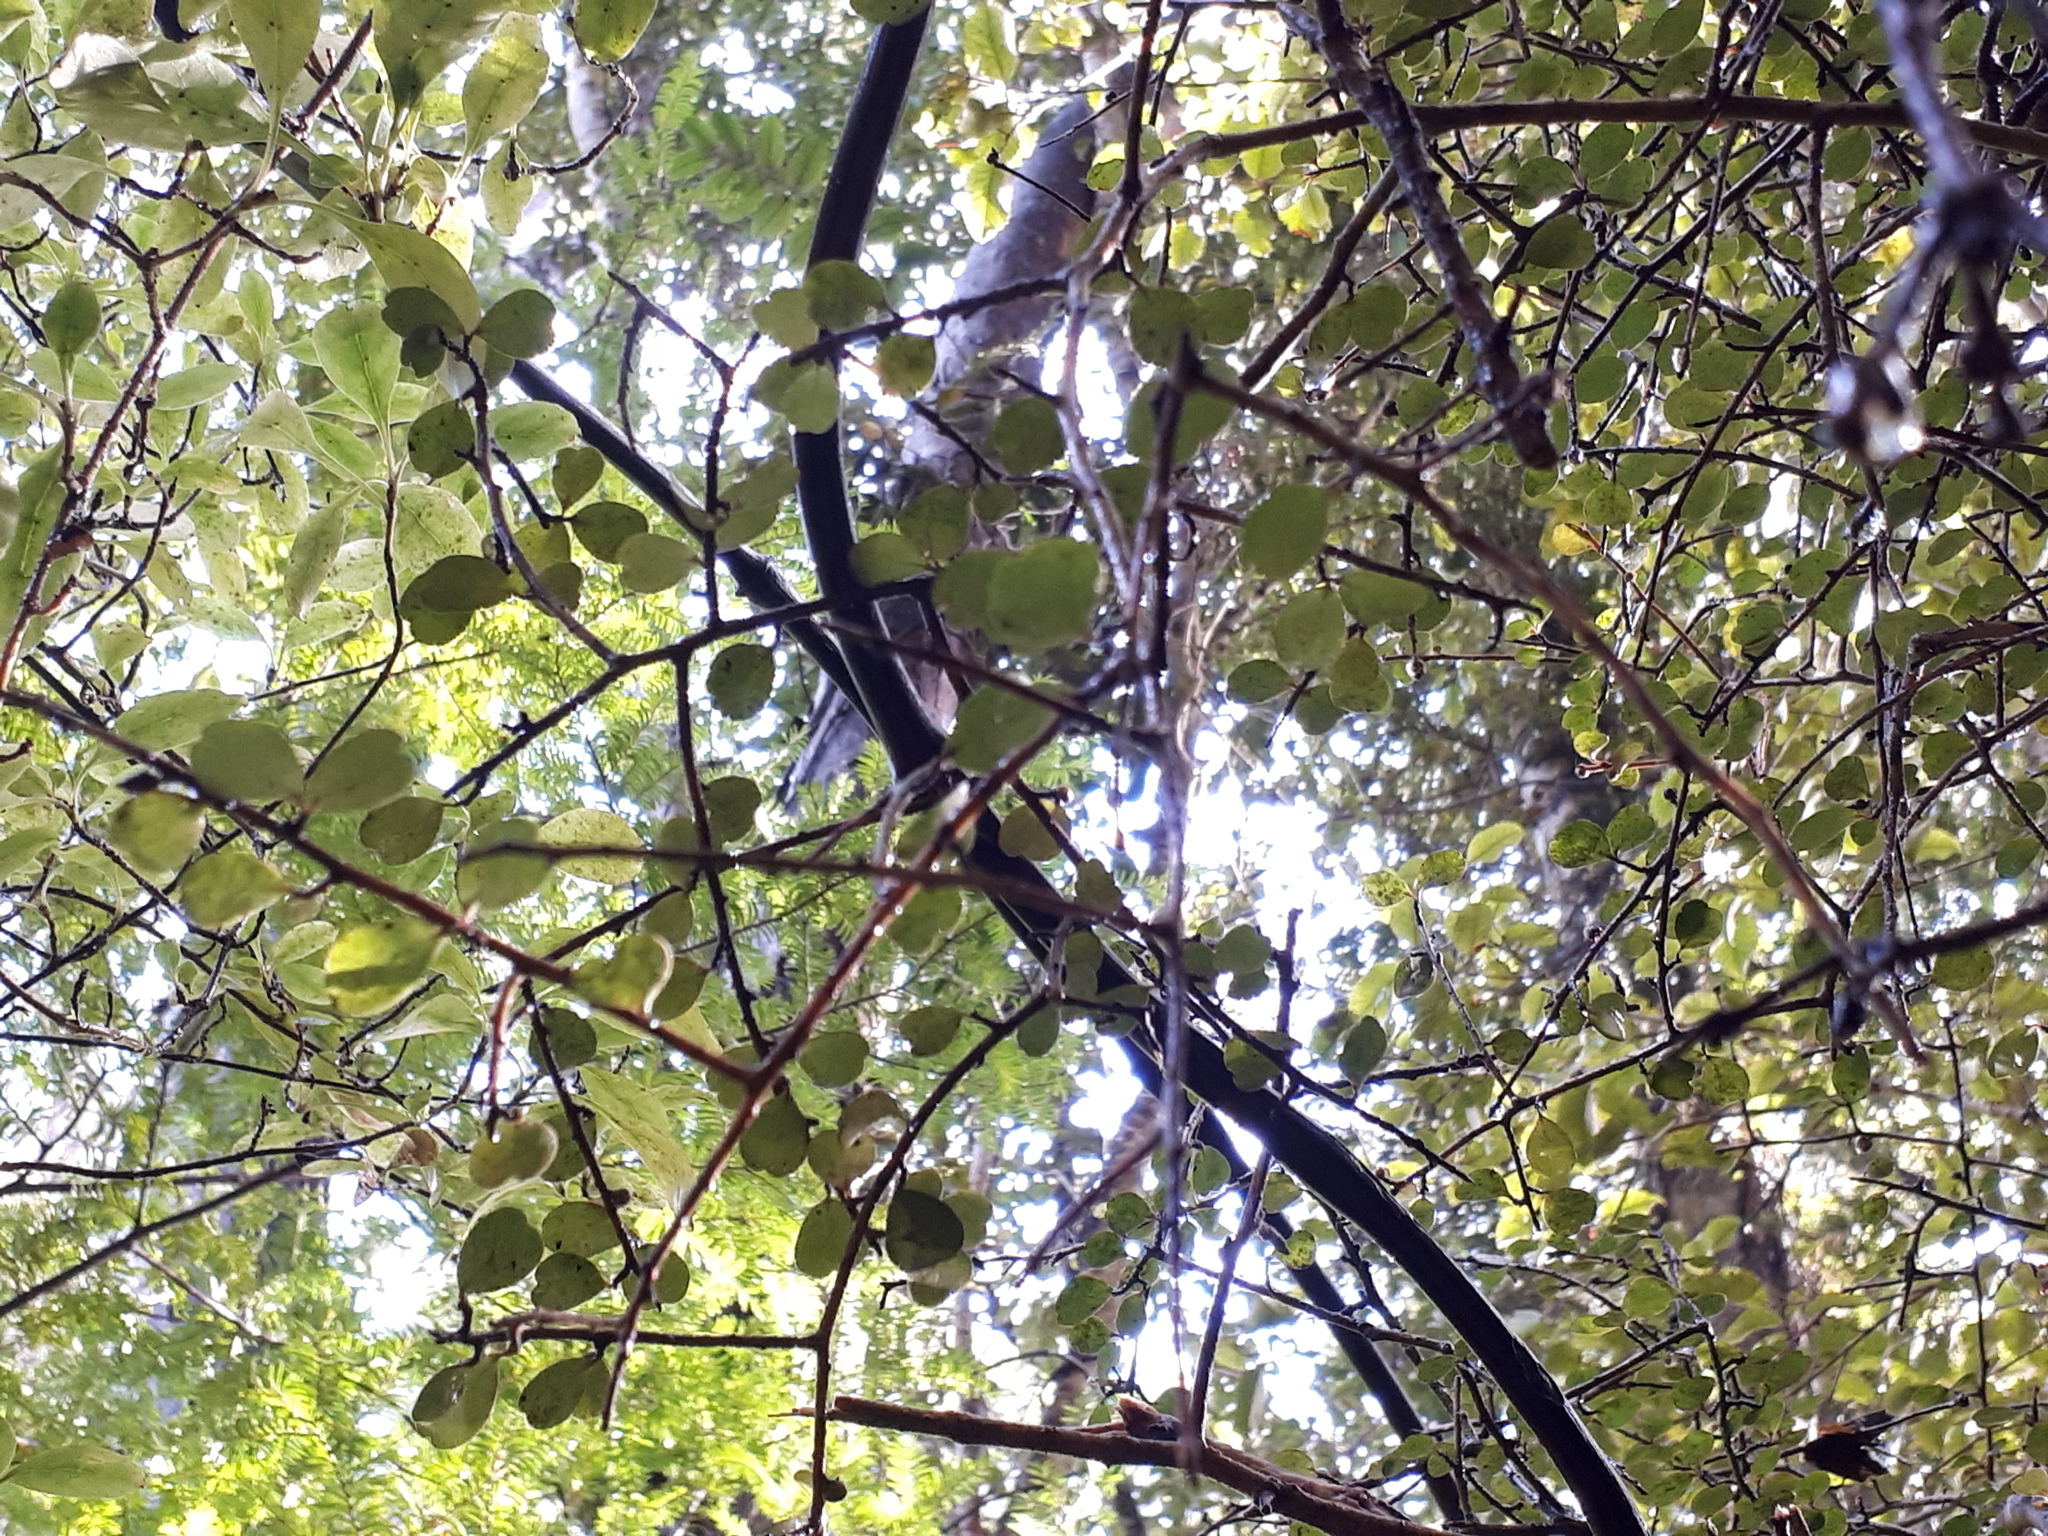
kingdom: Plantae
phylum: Tracheophyta
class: Magnoliopsida
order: Ericales
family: Primulaceae
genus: Myrsine
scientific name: Myrsine divaricata
